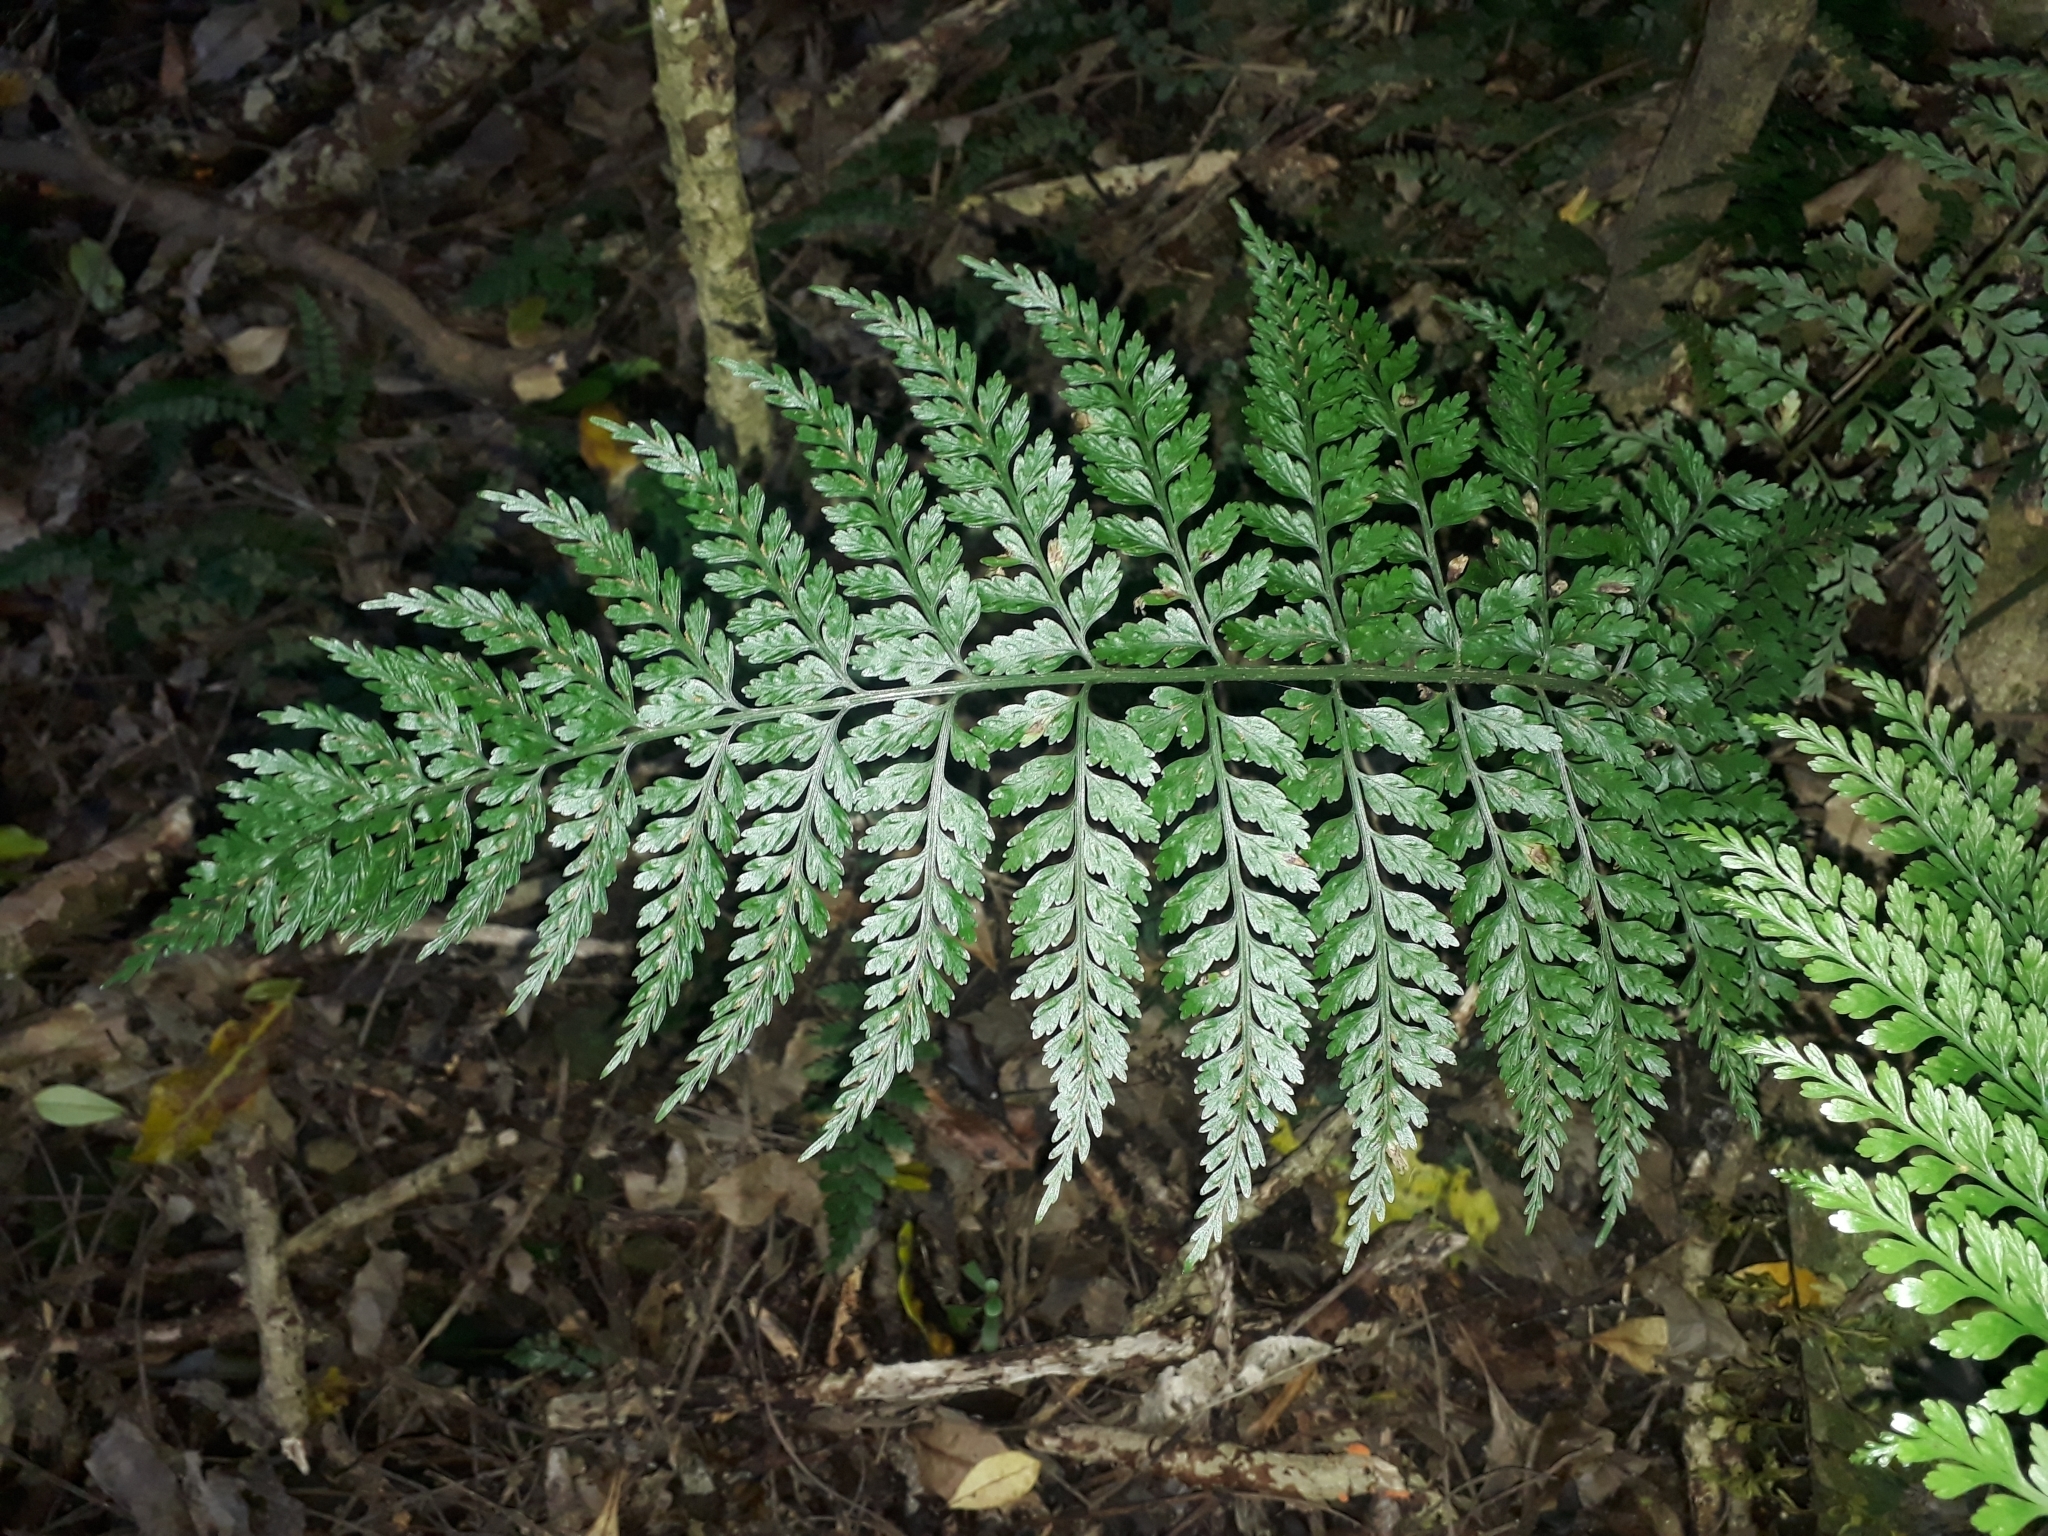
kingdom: Plantae
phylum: Tracheophyta
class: Polypodiopsida
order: Polypodiales
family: Aspleniaceae
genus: Asplenium
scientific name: Asplenium
